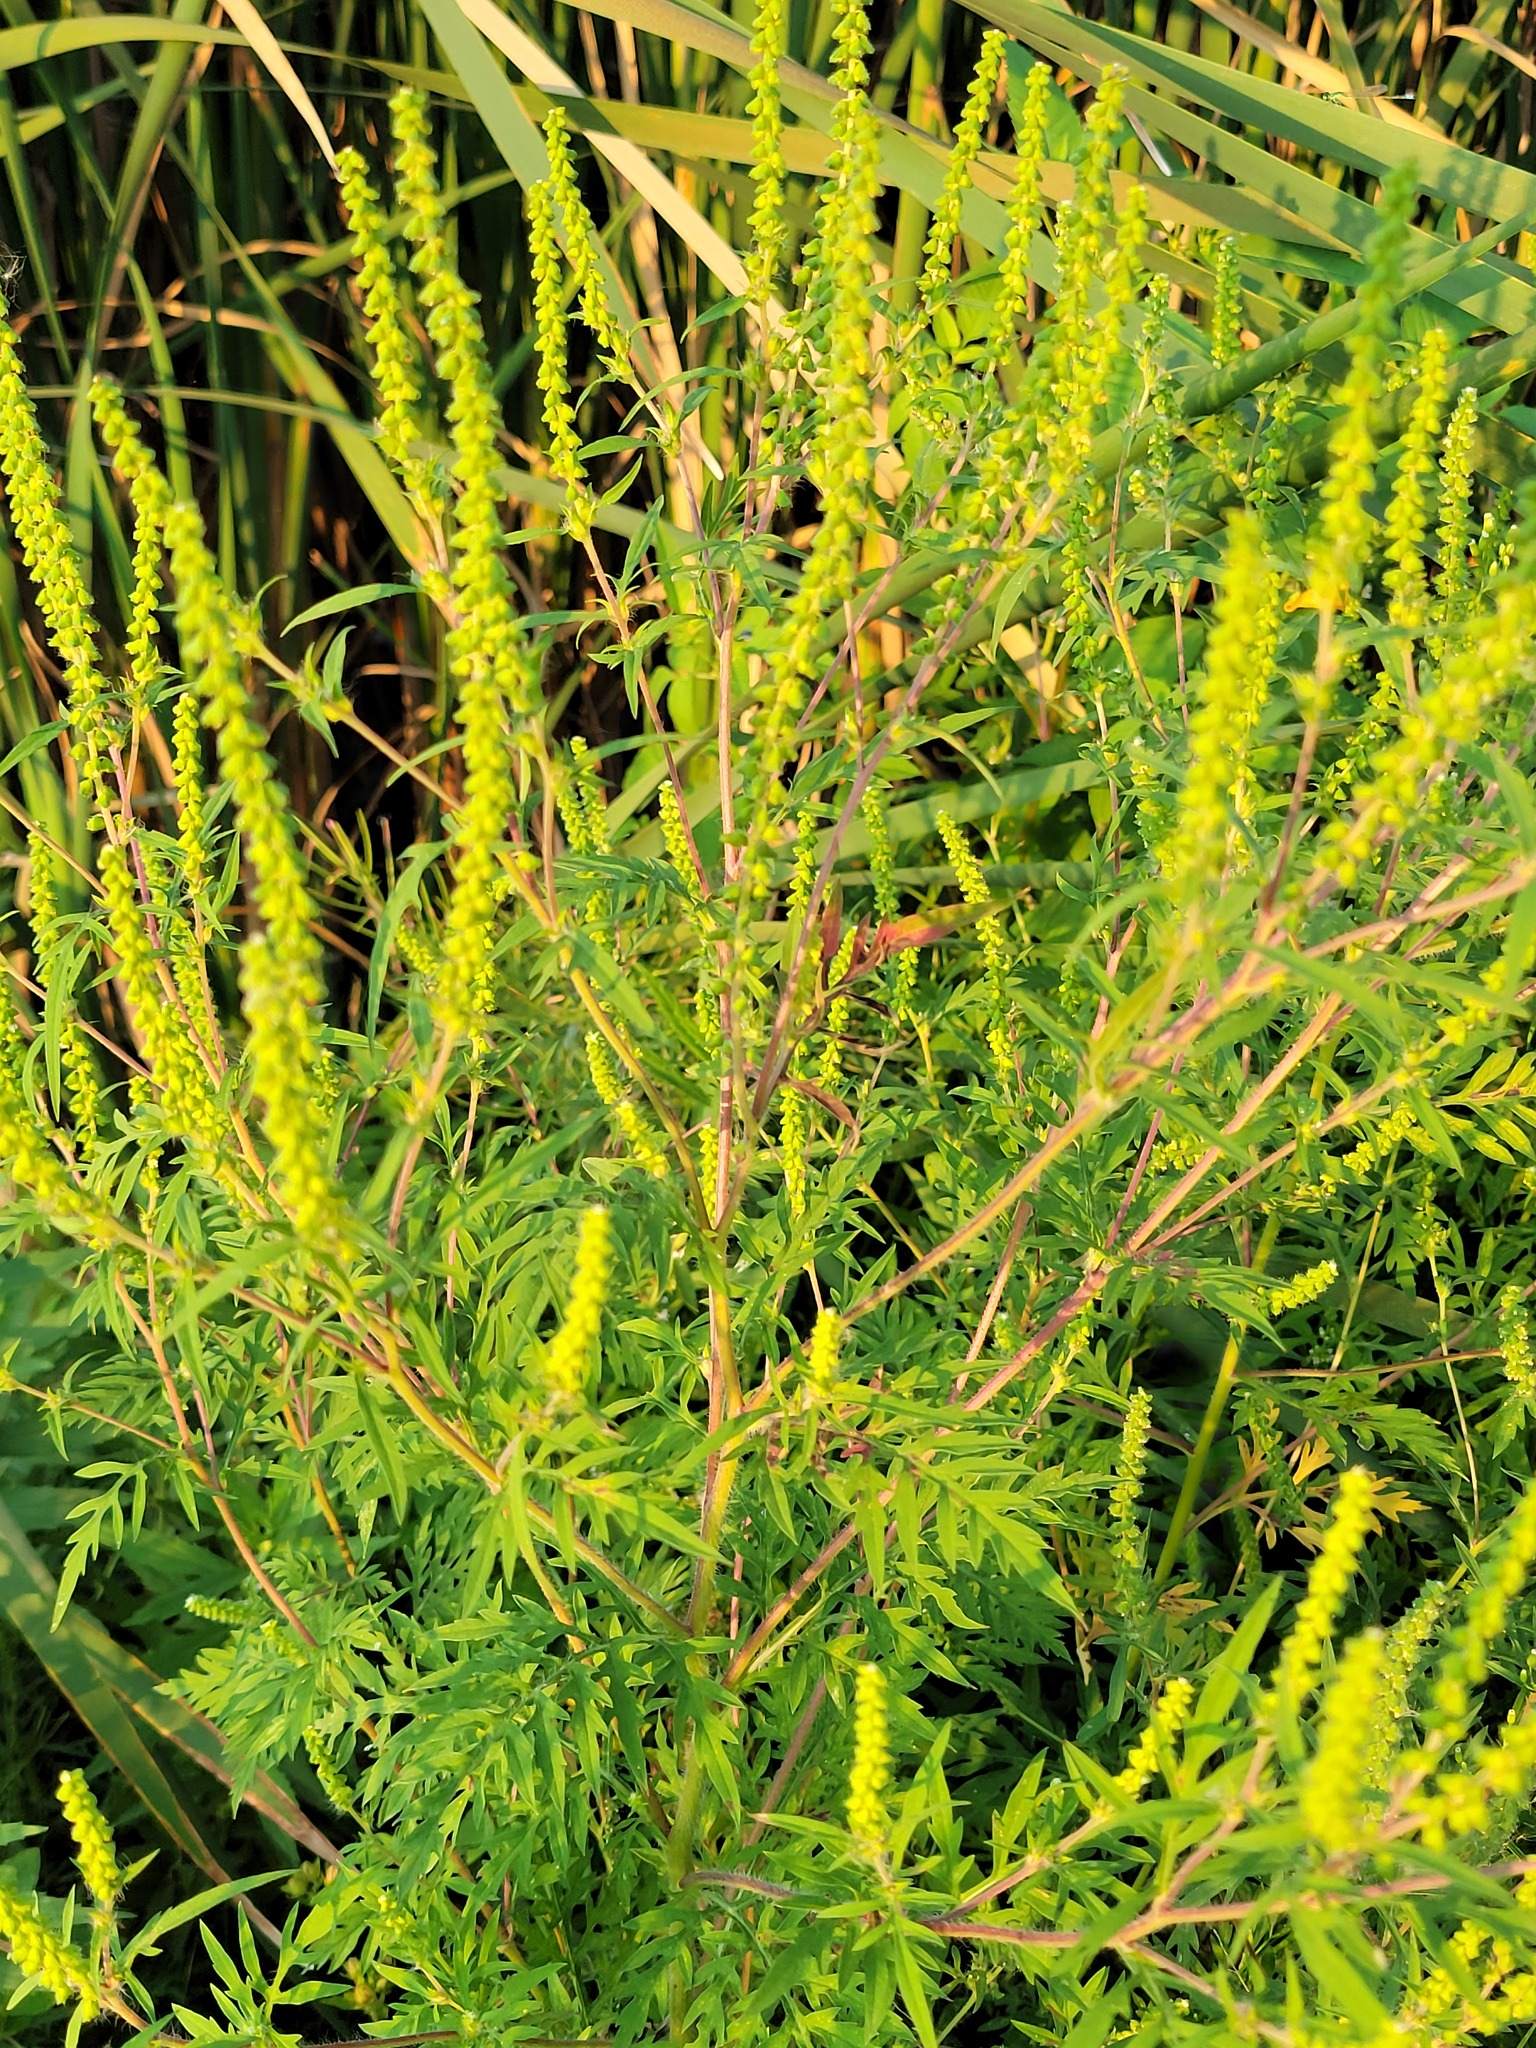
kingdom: Plantae
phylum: Tracheophyta
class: Magnoliopsida
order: Asterales
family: Asteraceae
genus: Ambrosia
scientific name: Ambrosia artemisiifolia
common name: Annual ragweed
